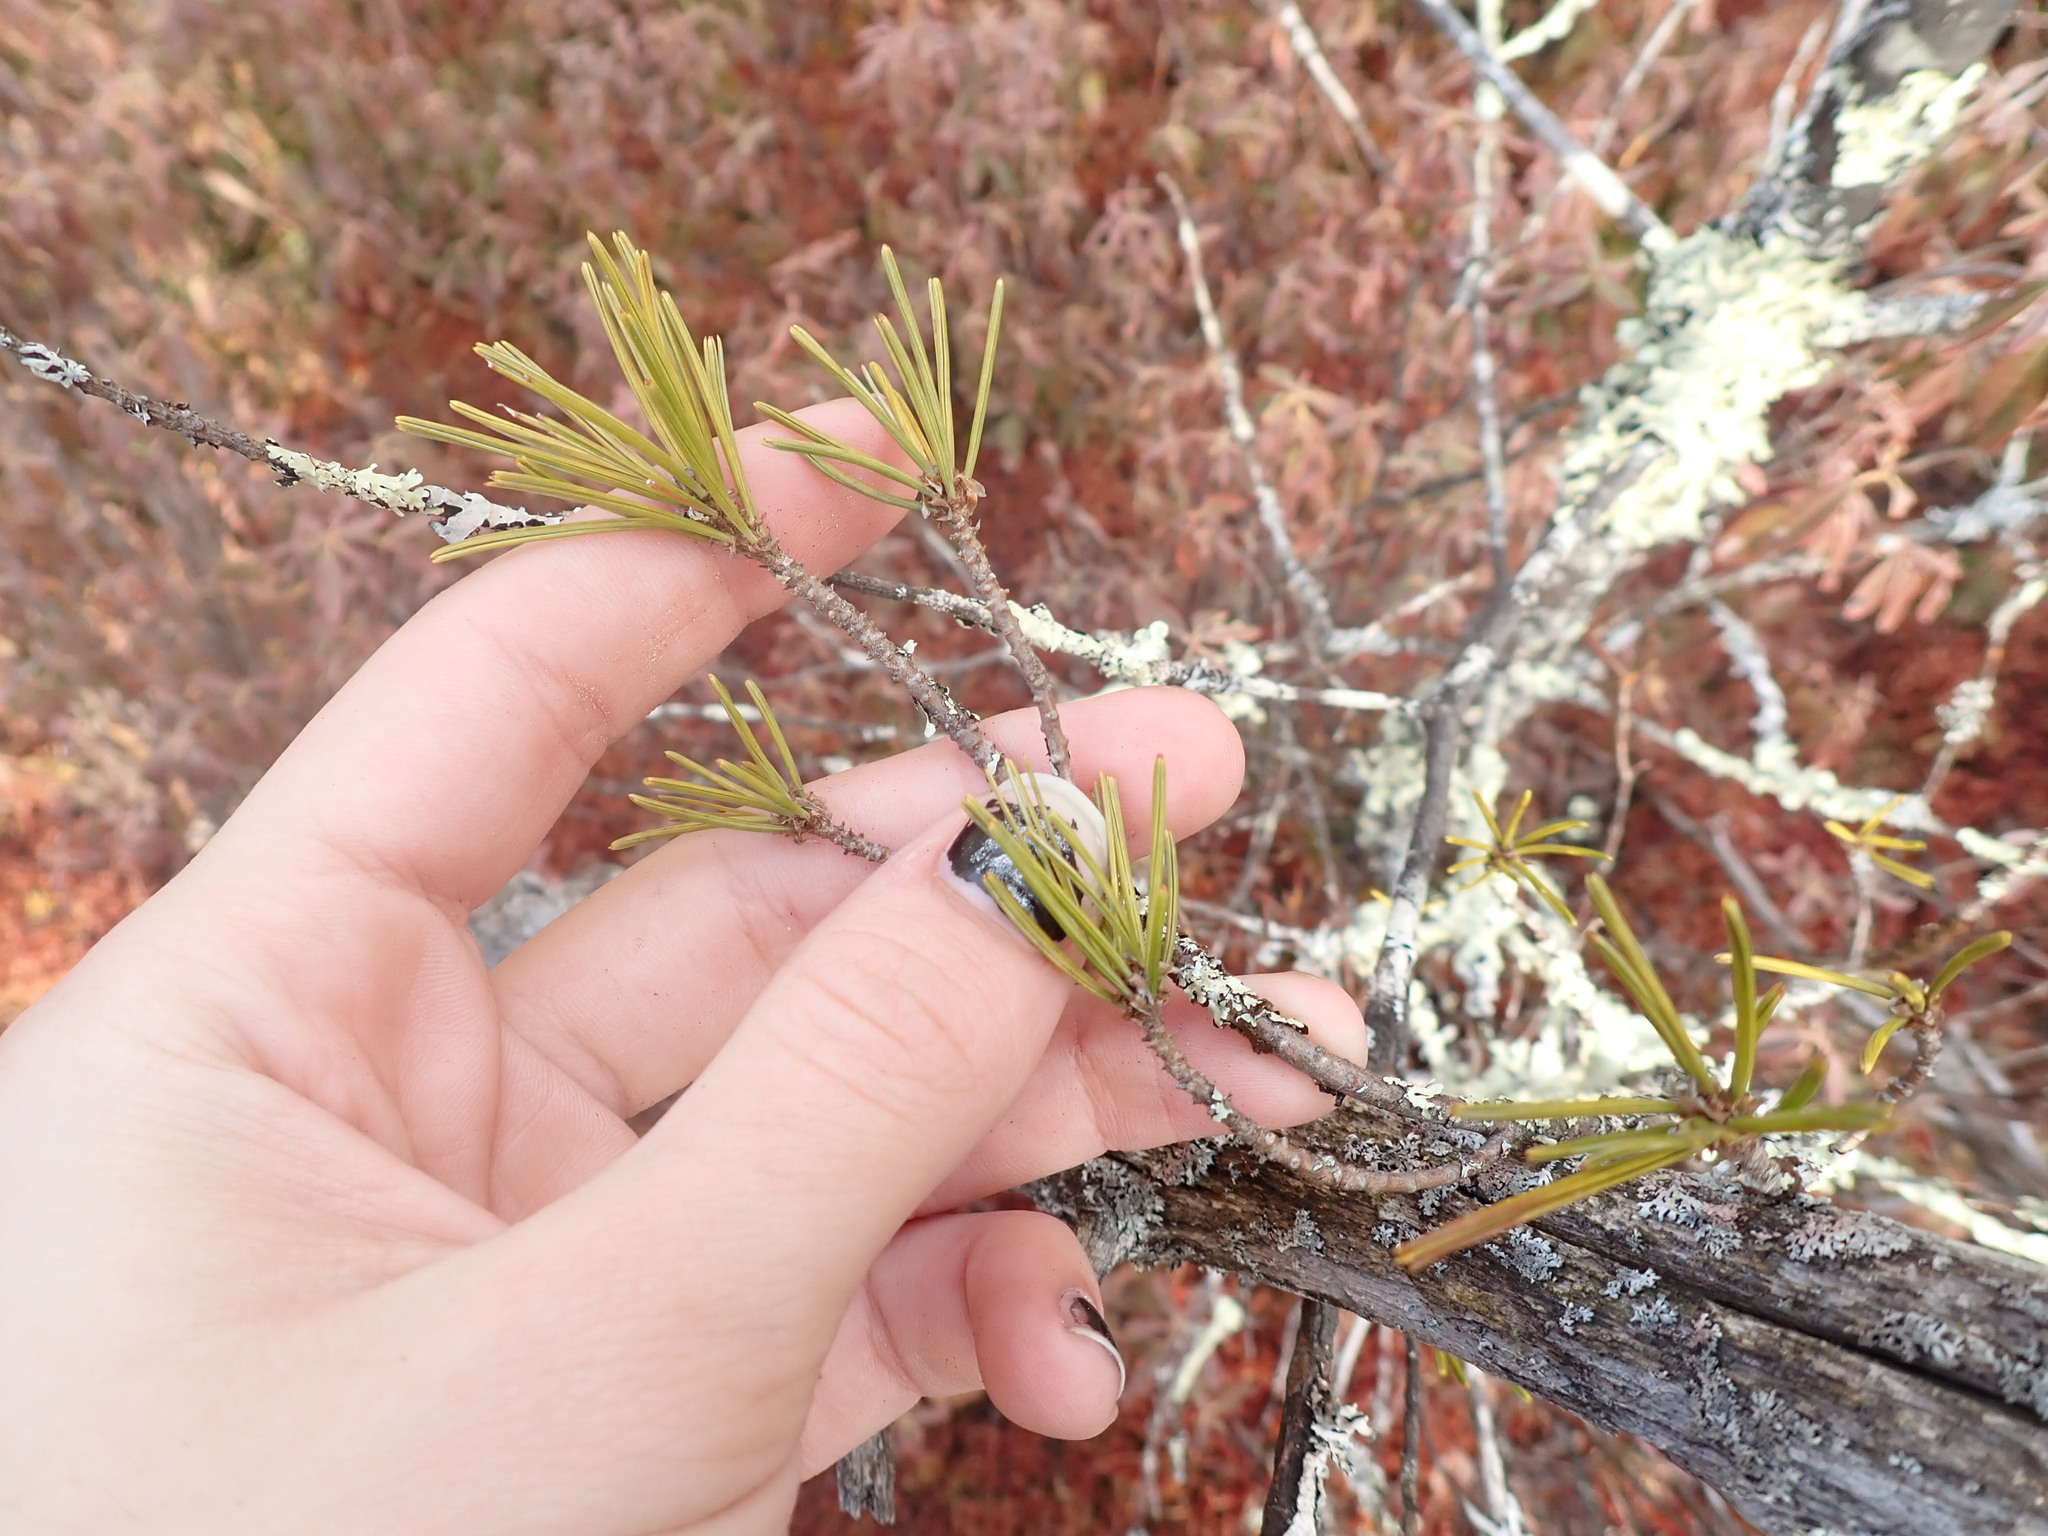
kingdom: Plantae
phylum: Tracheophyta
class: Pinopsida
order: Pinales
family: Pinaceae
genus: Pinus
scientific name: Pinus rigida
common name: Pitch pine
